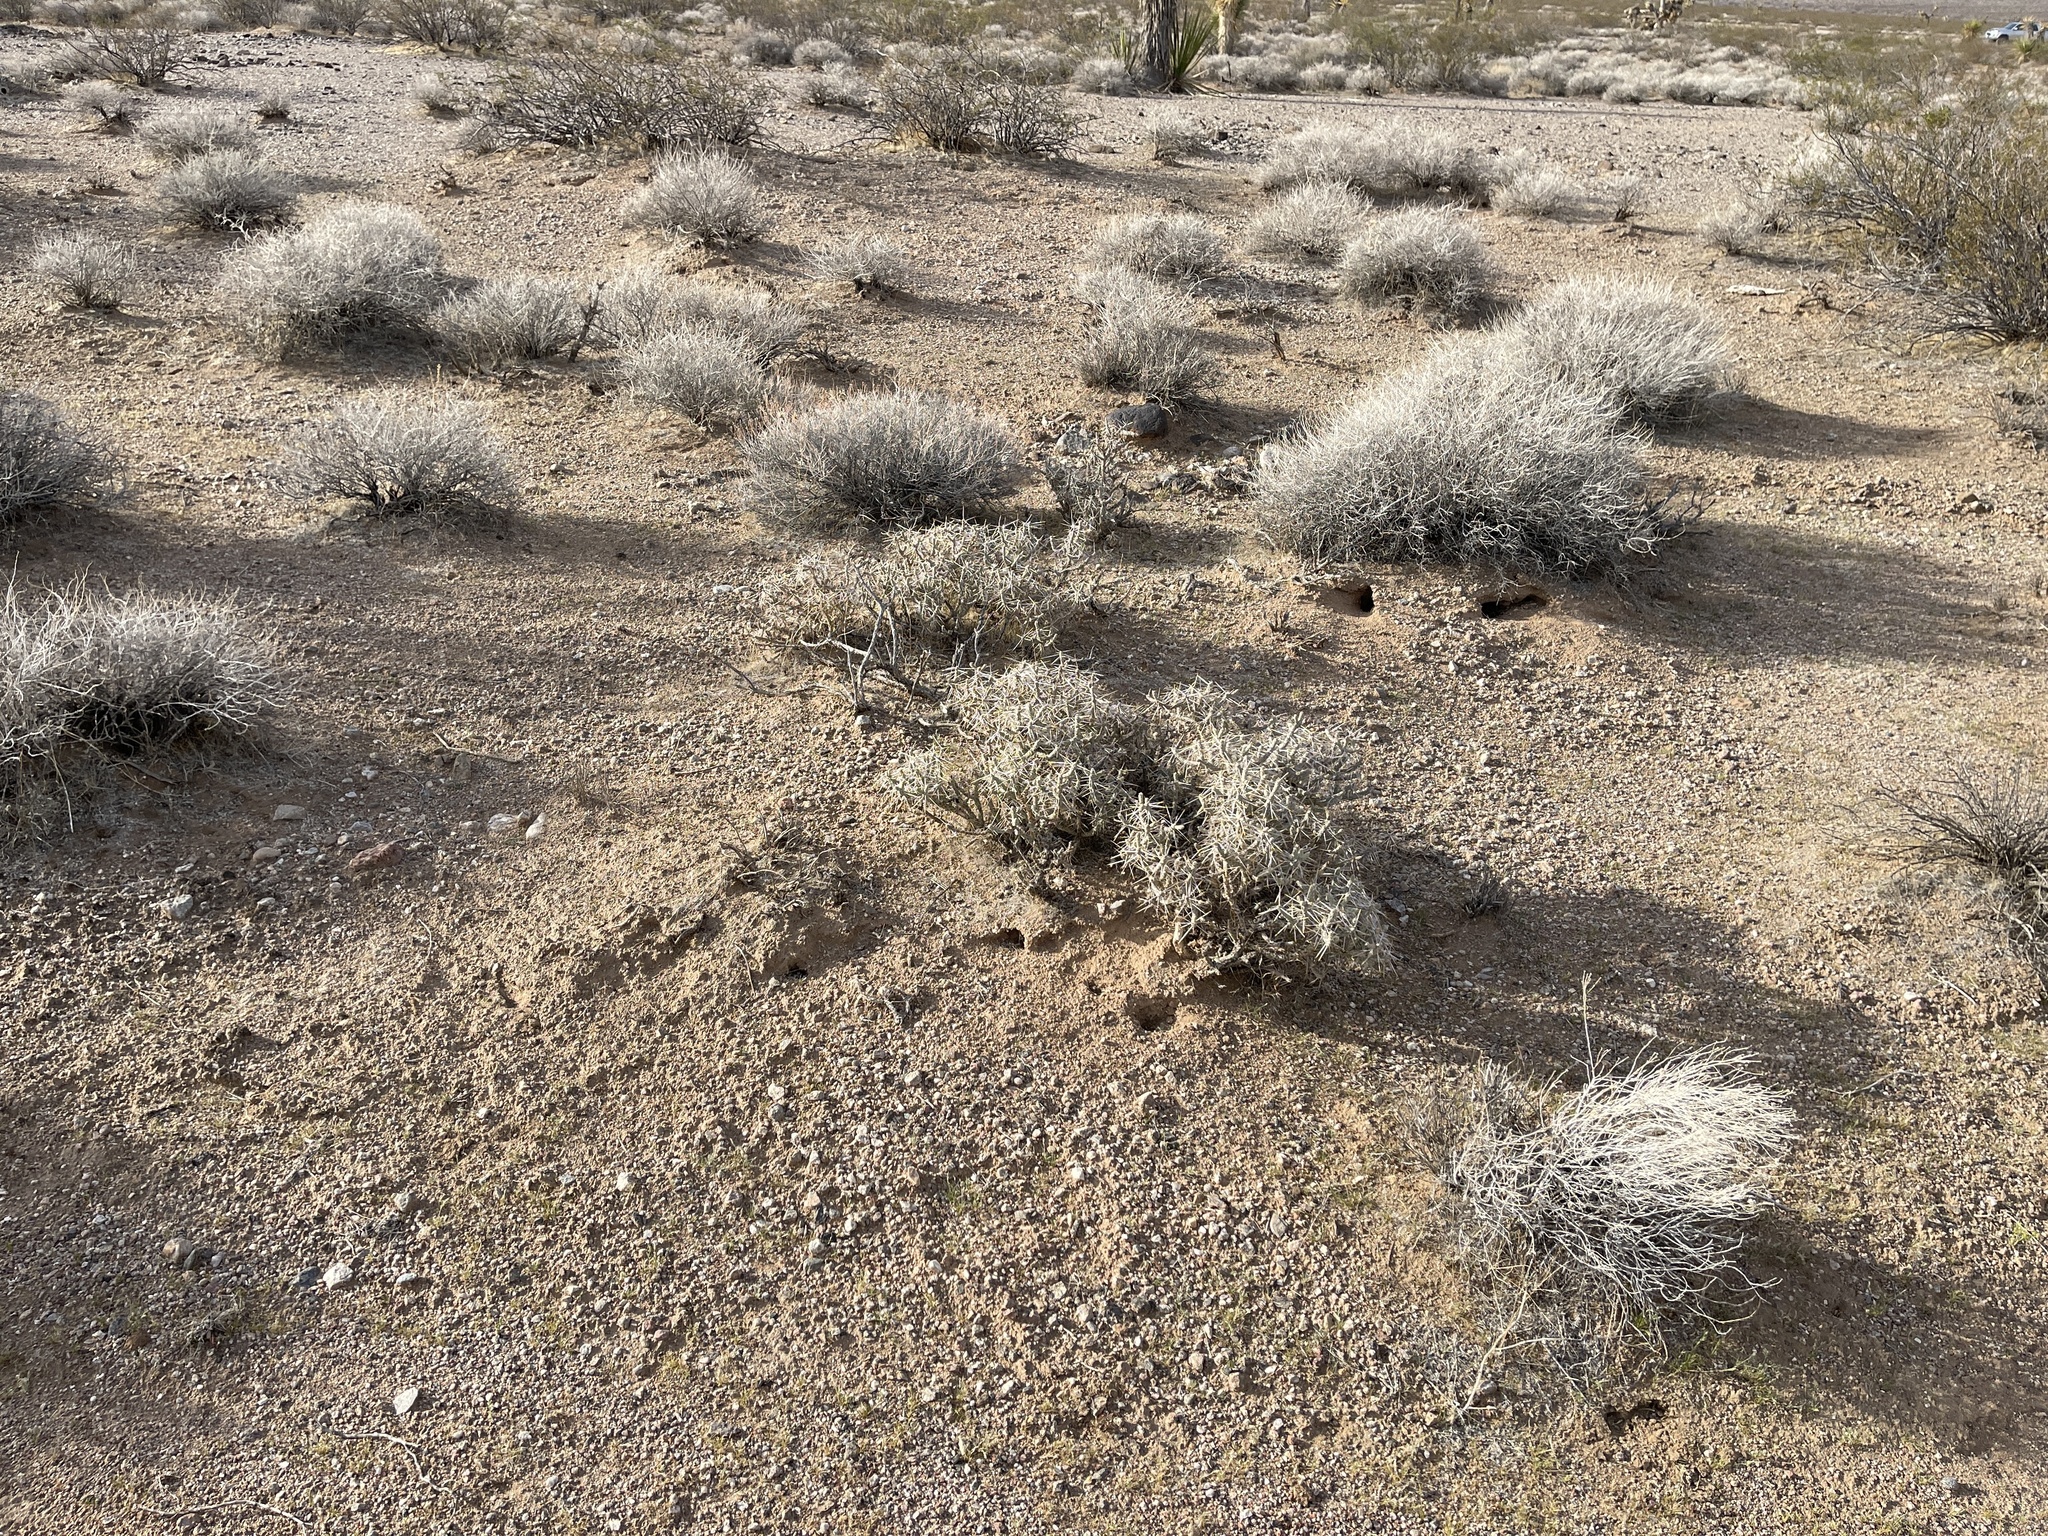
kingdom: Plantae
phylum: Tracheophyta
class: Magnoliopsida
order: Caryophyllales
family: Cactaceae
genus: Cylindropuntia
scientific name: Cylindropuntia ramosissima
